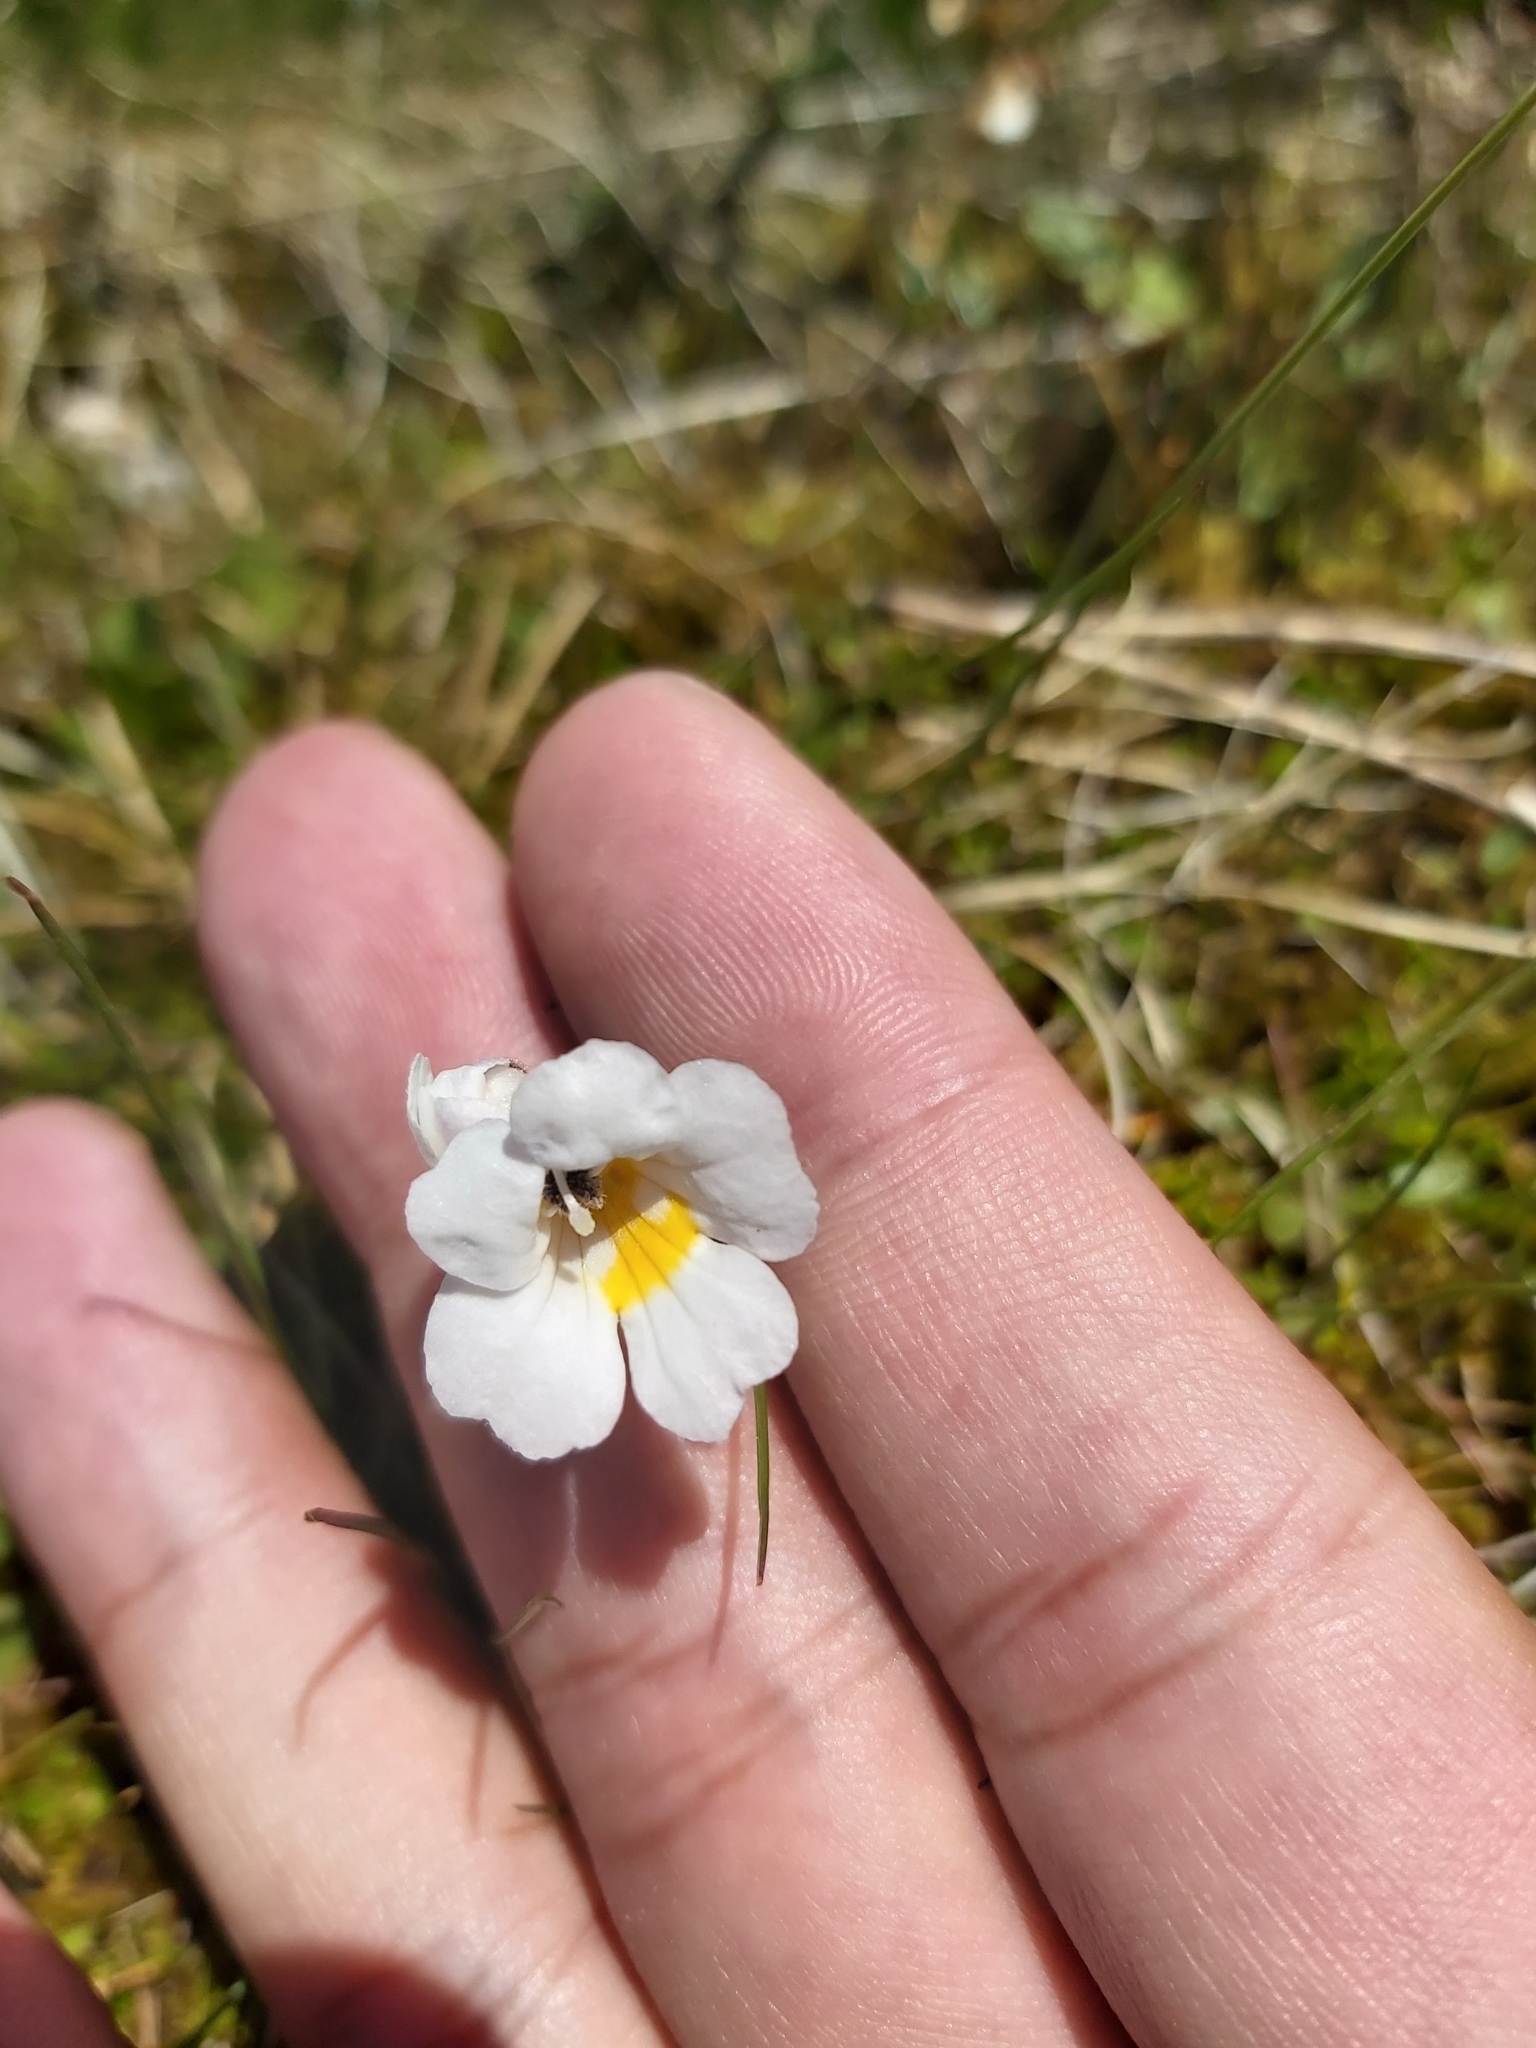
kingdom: Plantae
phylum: Tracheophyta
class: Magnoliopsida
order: Lamiales
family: Orobanchaceae
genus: Euphrasia
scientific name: Euphrasia collina
